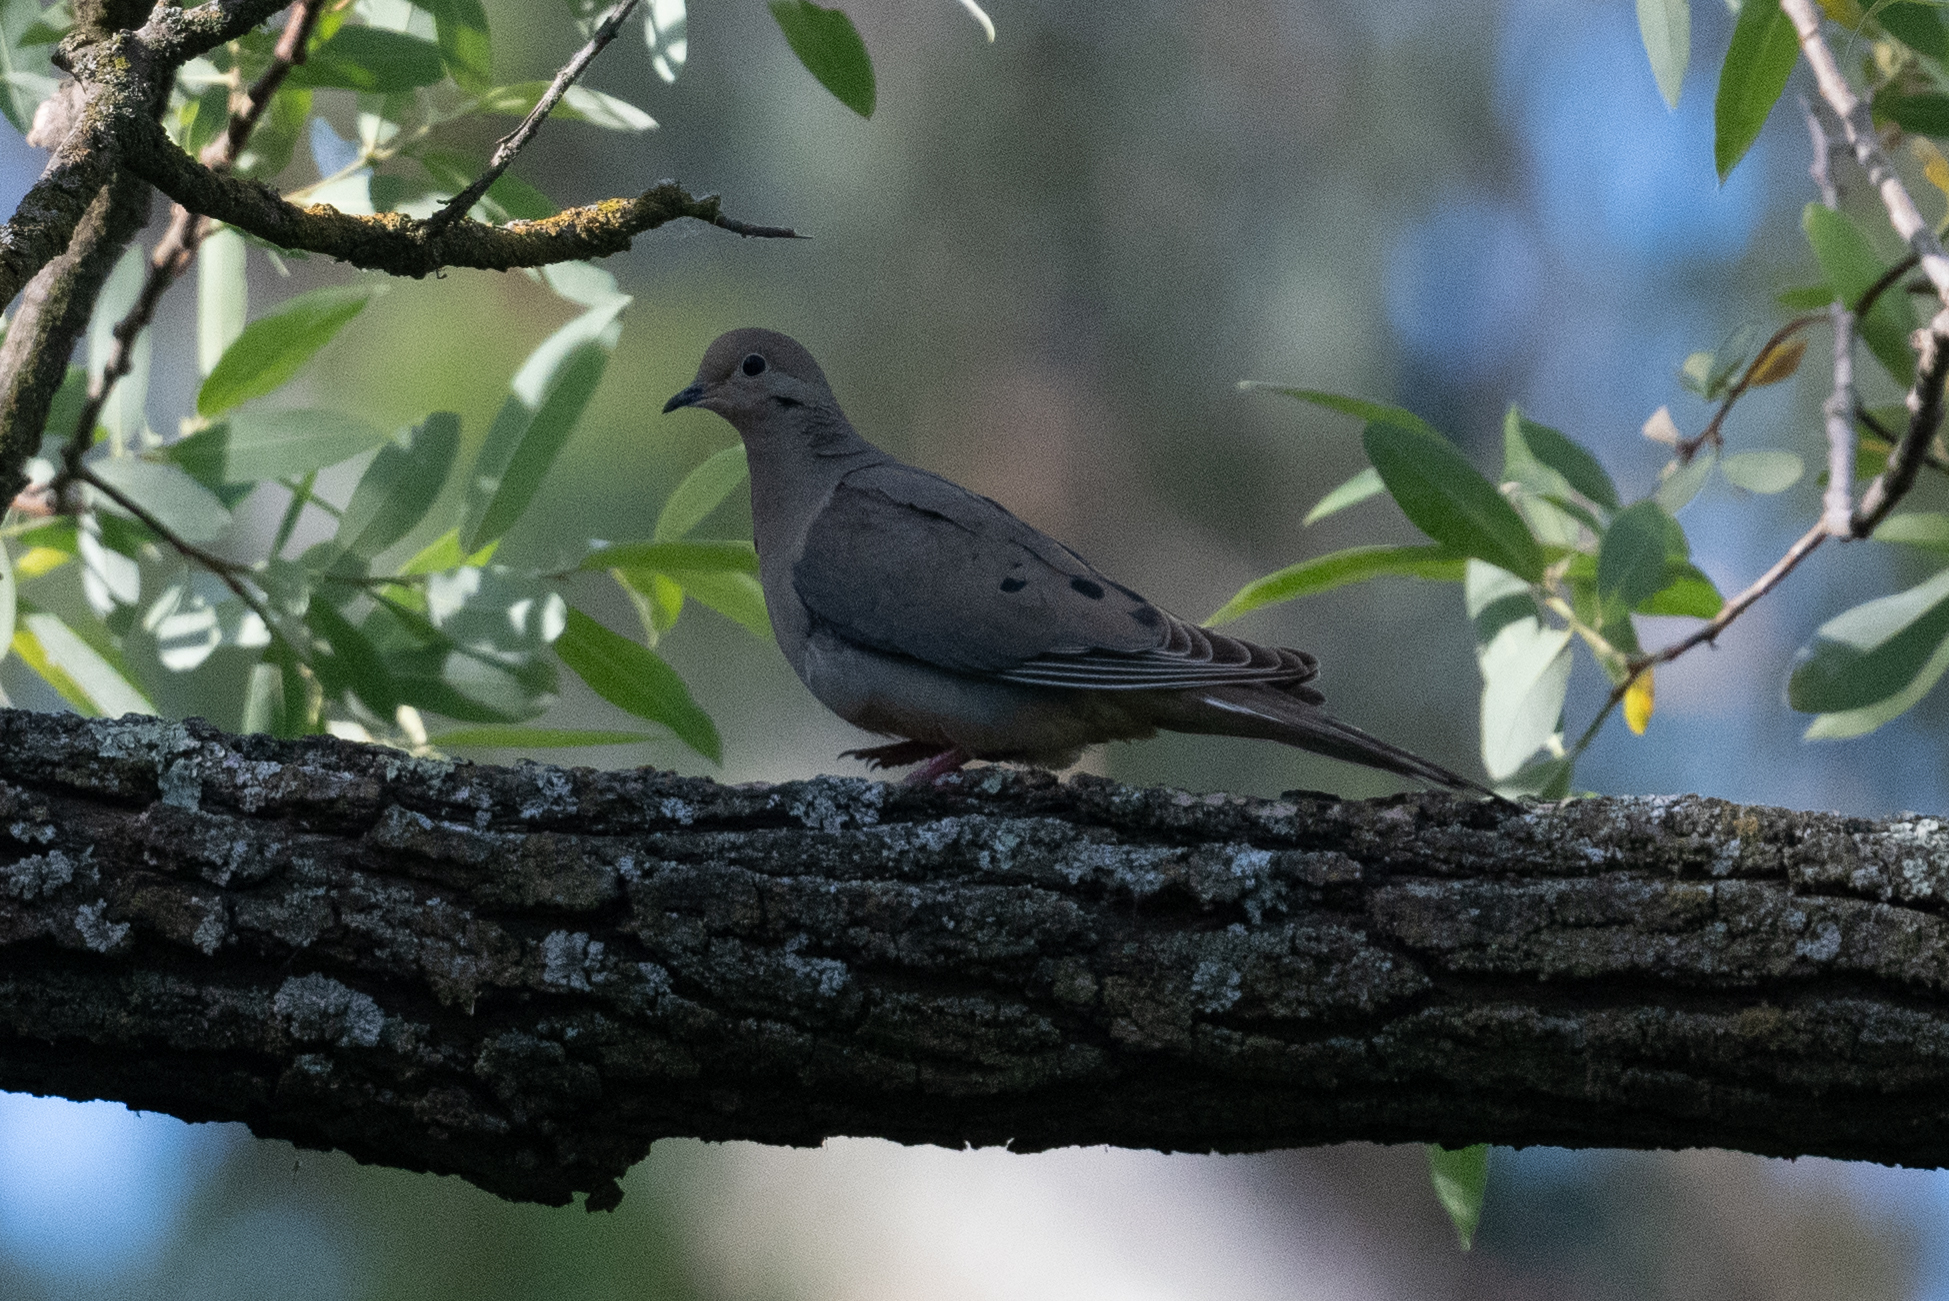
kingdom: Animalia
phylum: Chordata
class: Aves
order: Columbiformes
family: Columbidae
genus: Zenaida
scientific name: Zenaida macroura
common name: Mourning dove
